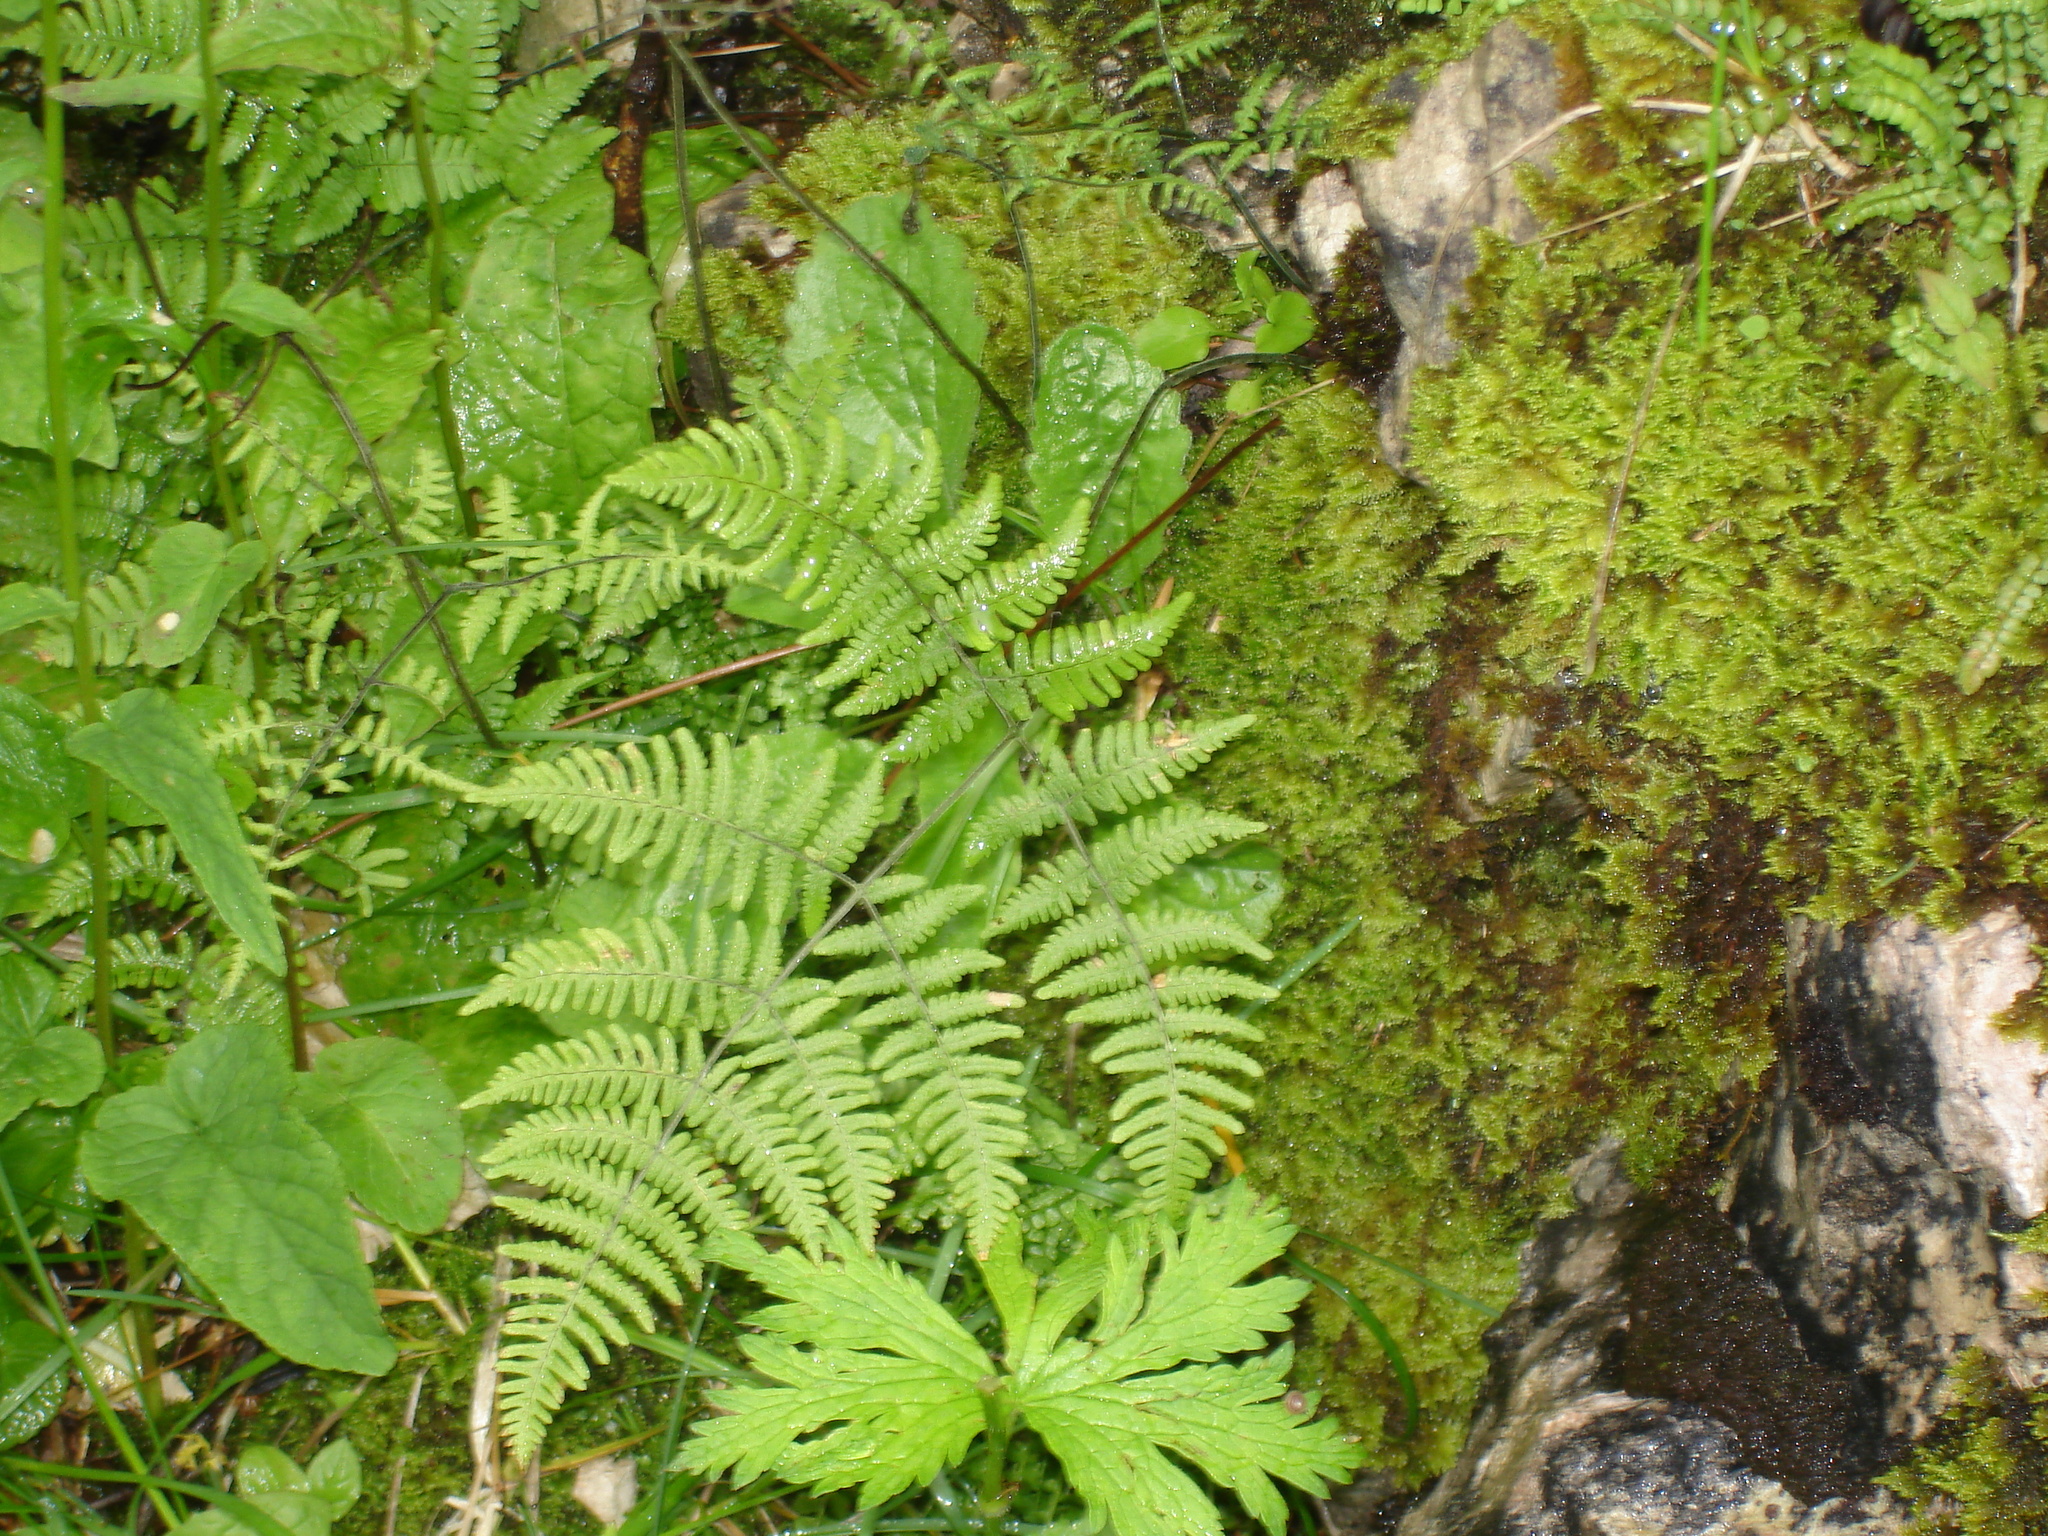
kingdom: Plantae
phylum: Tracheophyta
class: Polypodiopsida
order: Polypodiales
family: Dennstaedtiaceae
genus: Pteridium
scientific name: Pteridium aquilinum
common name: Bracken
